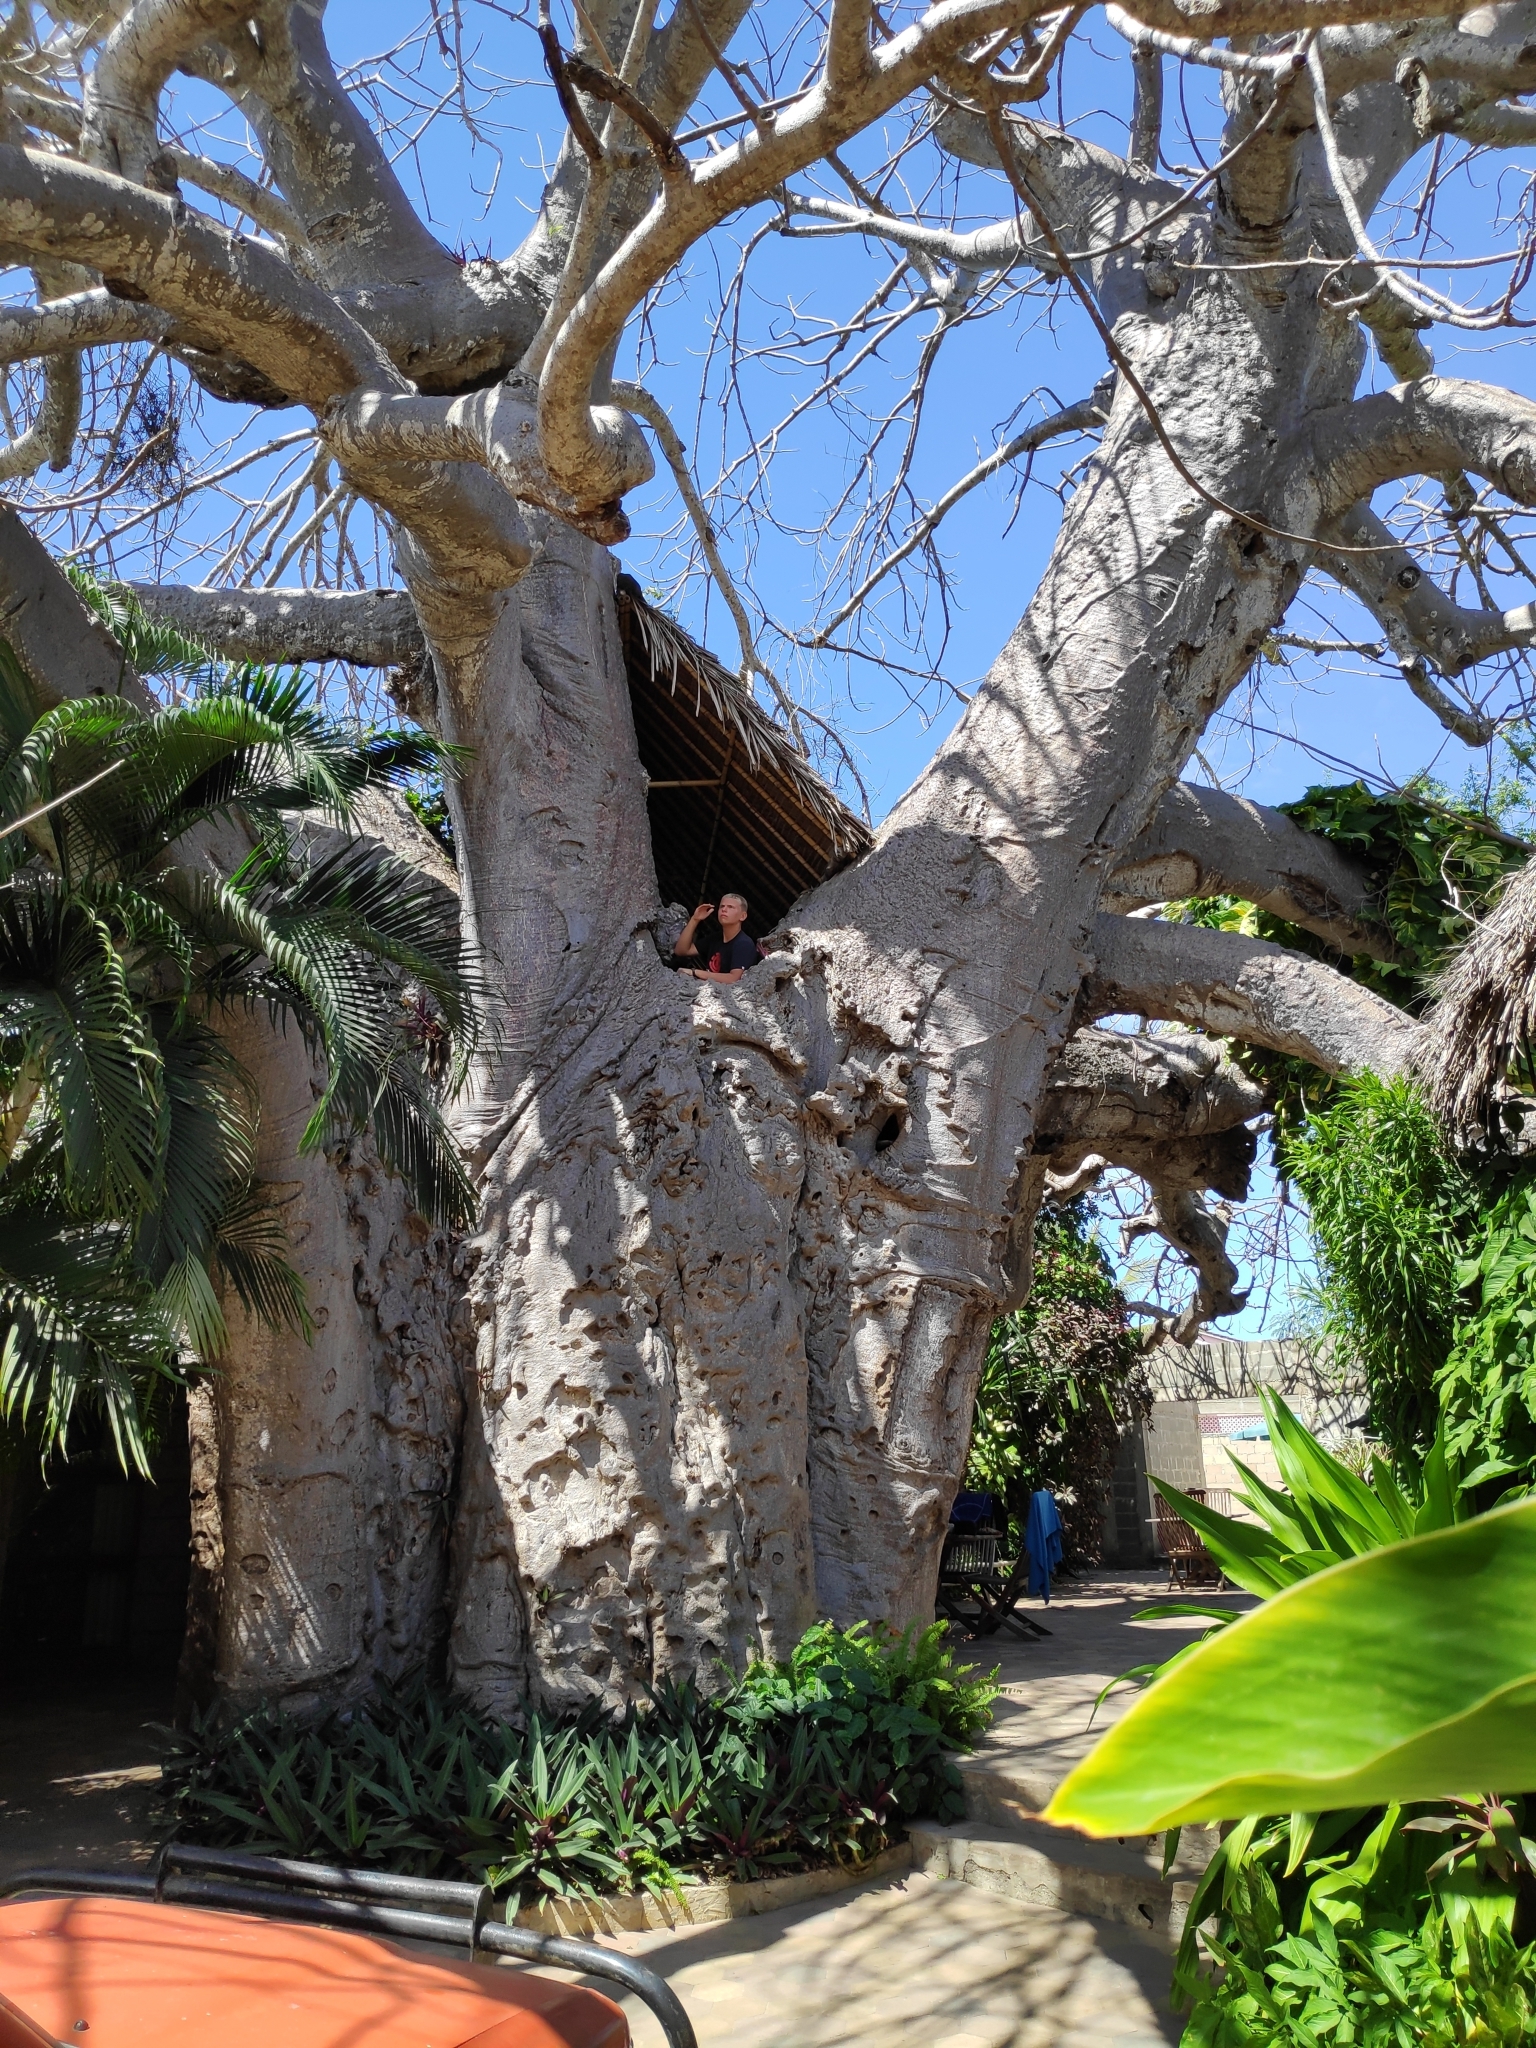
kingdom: Plantae
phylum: Tracheophyta
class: Magnoliopsida
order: Malvales
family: Malvaceae
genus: Adansonia
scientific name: Adansonia digitata
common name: Dead-rat-tree
